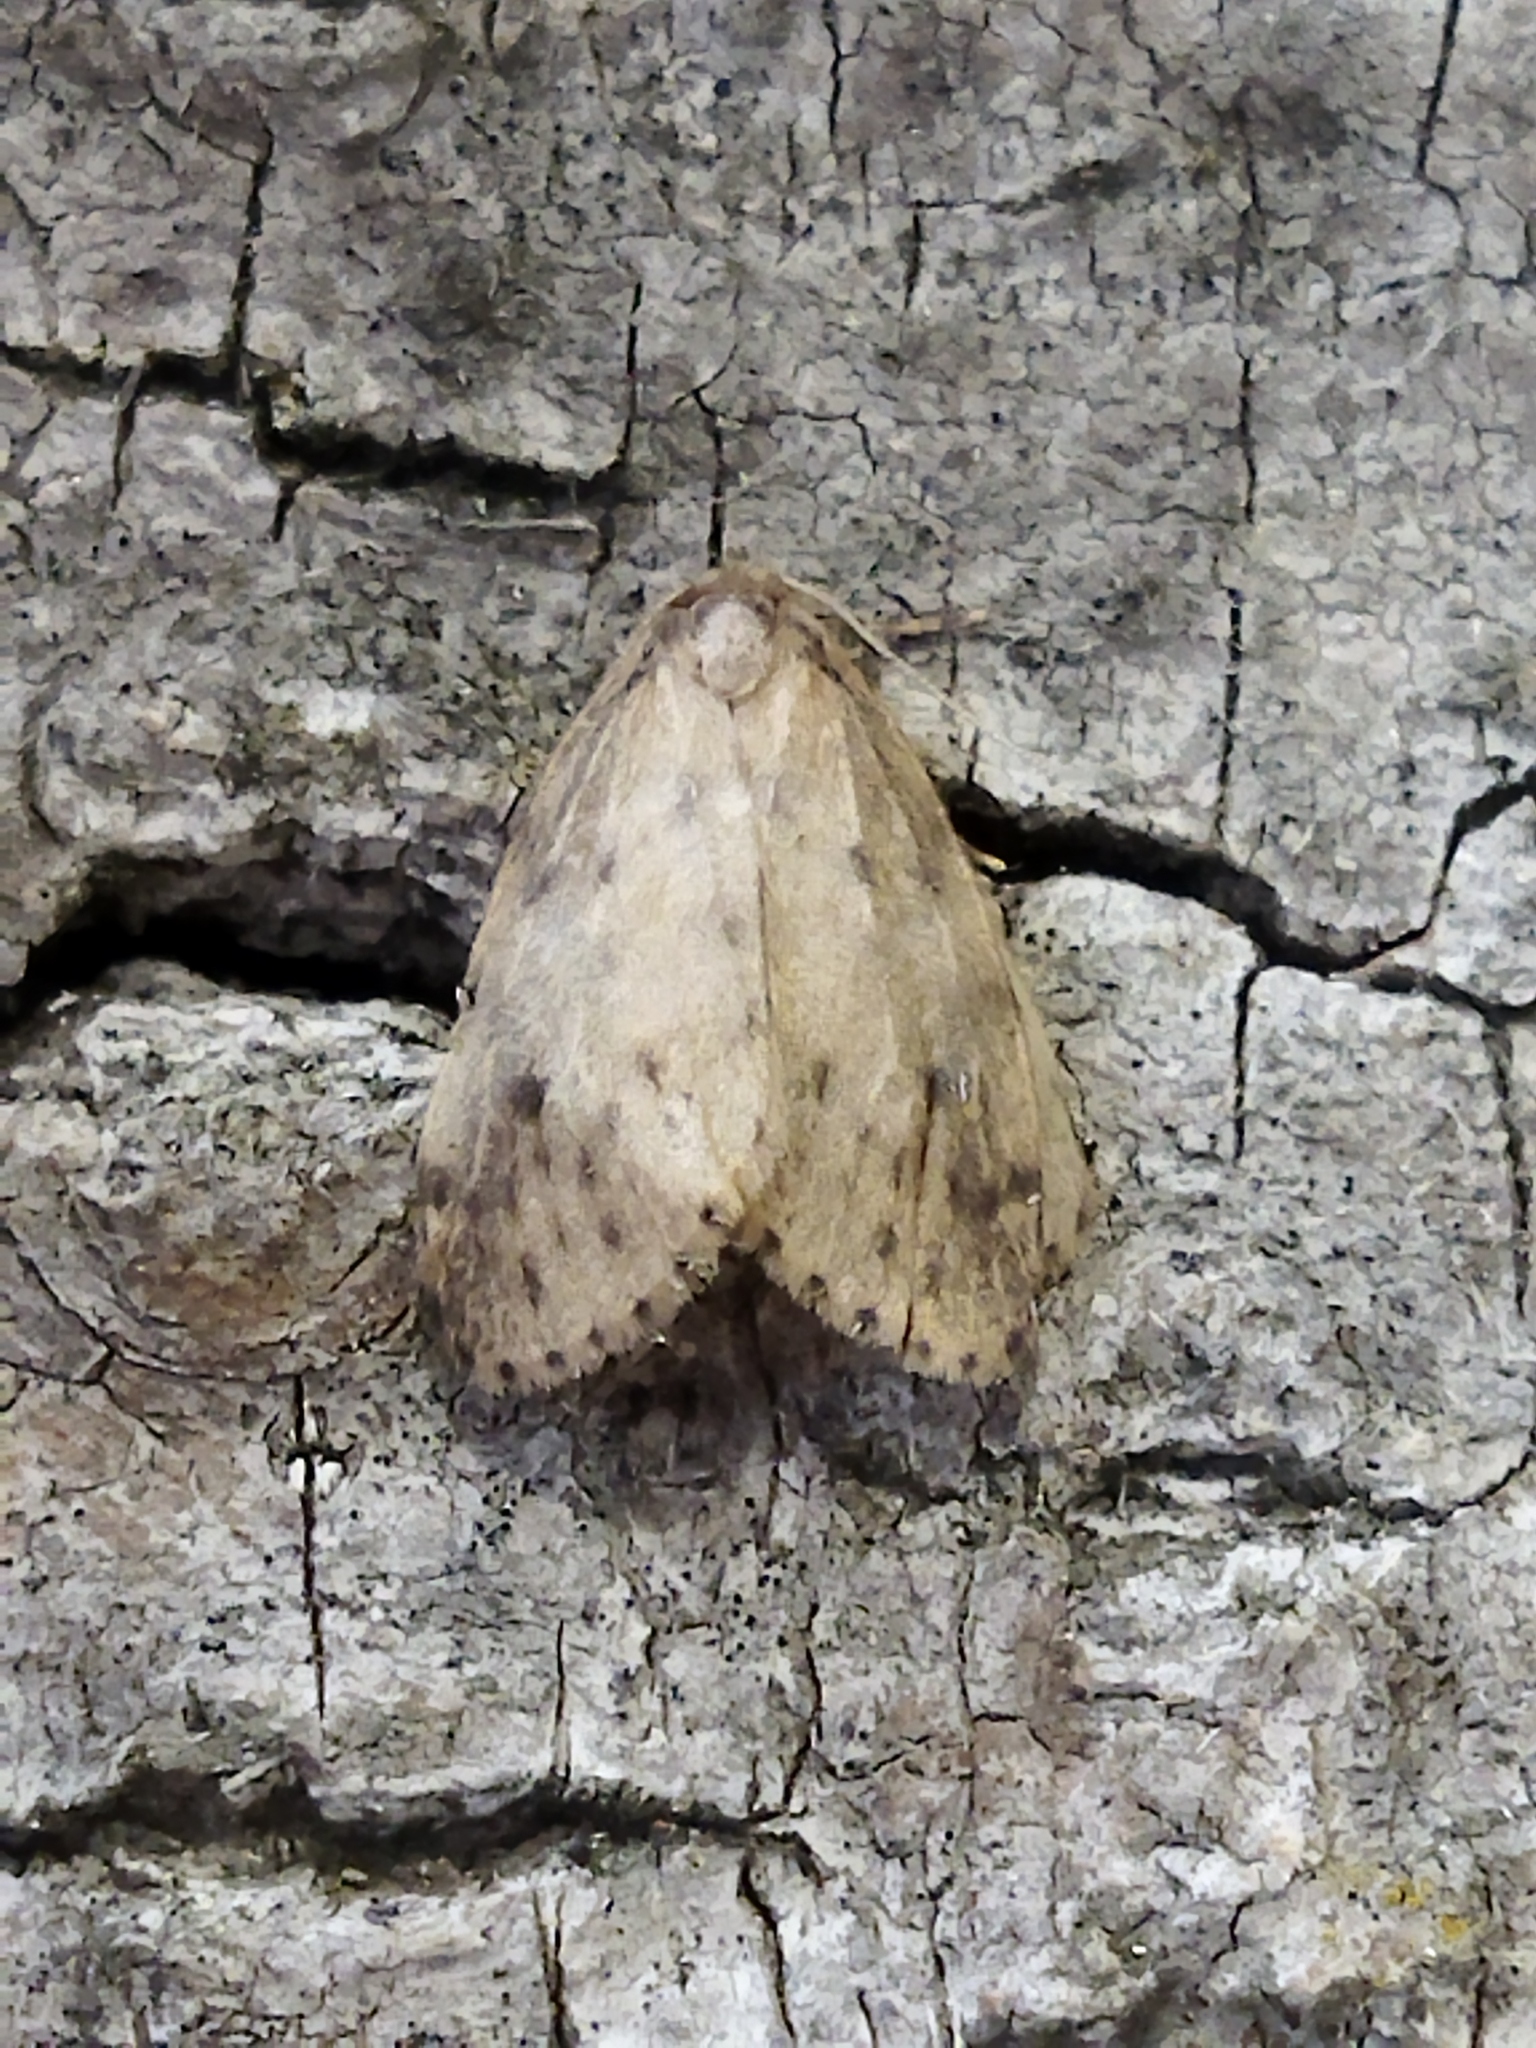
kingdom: Animalia
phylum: Arthropoda
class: Insecta
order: Lepidoptera
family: Erebidae
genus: Thumatha
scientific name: Thumatha senex
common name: Round-winged muslin
